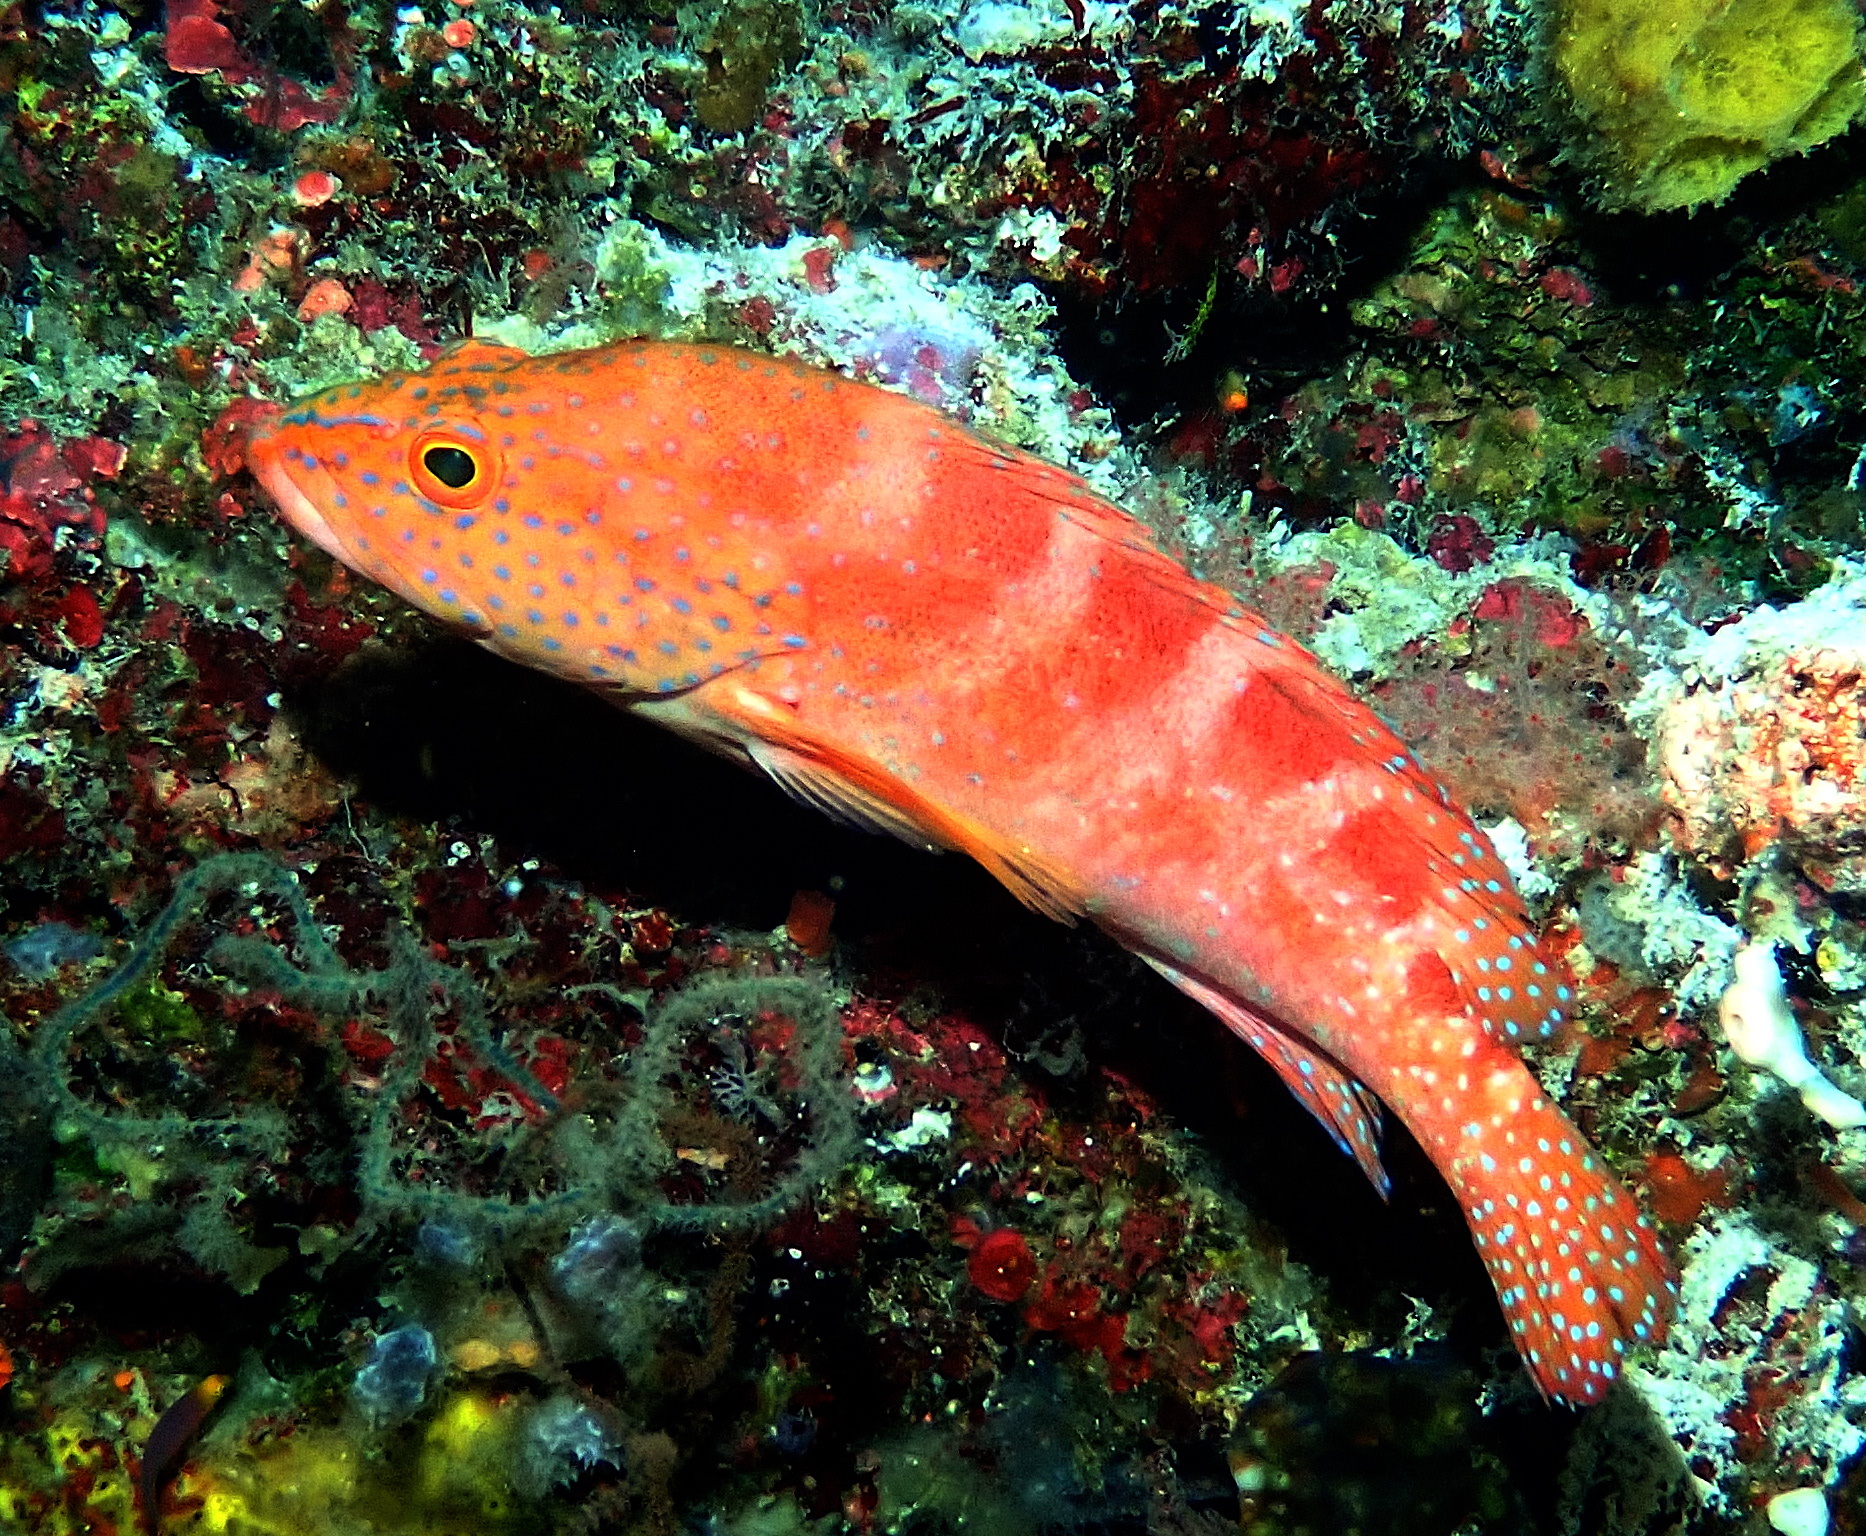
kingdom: Animalia
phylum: Chordata
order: Perciformes
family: Serranidae
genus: Cephalopholis
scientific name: Cephalopholis sexmaculata
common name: Sixblotch hind
